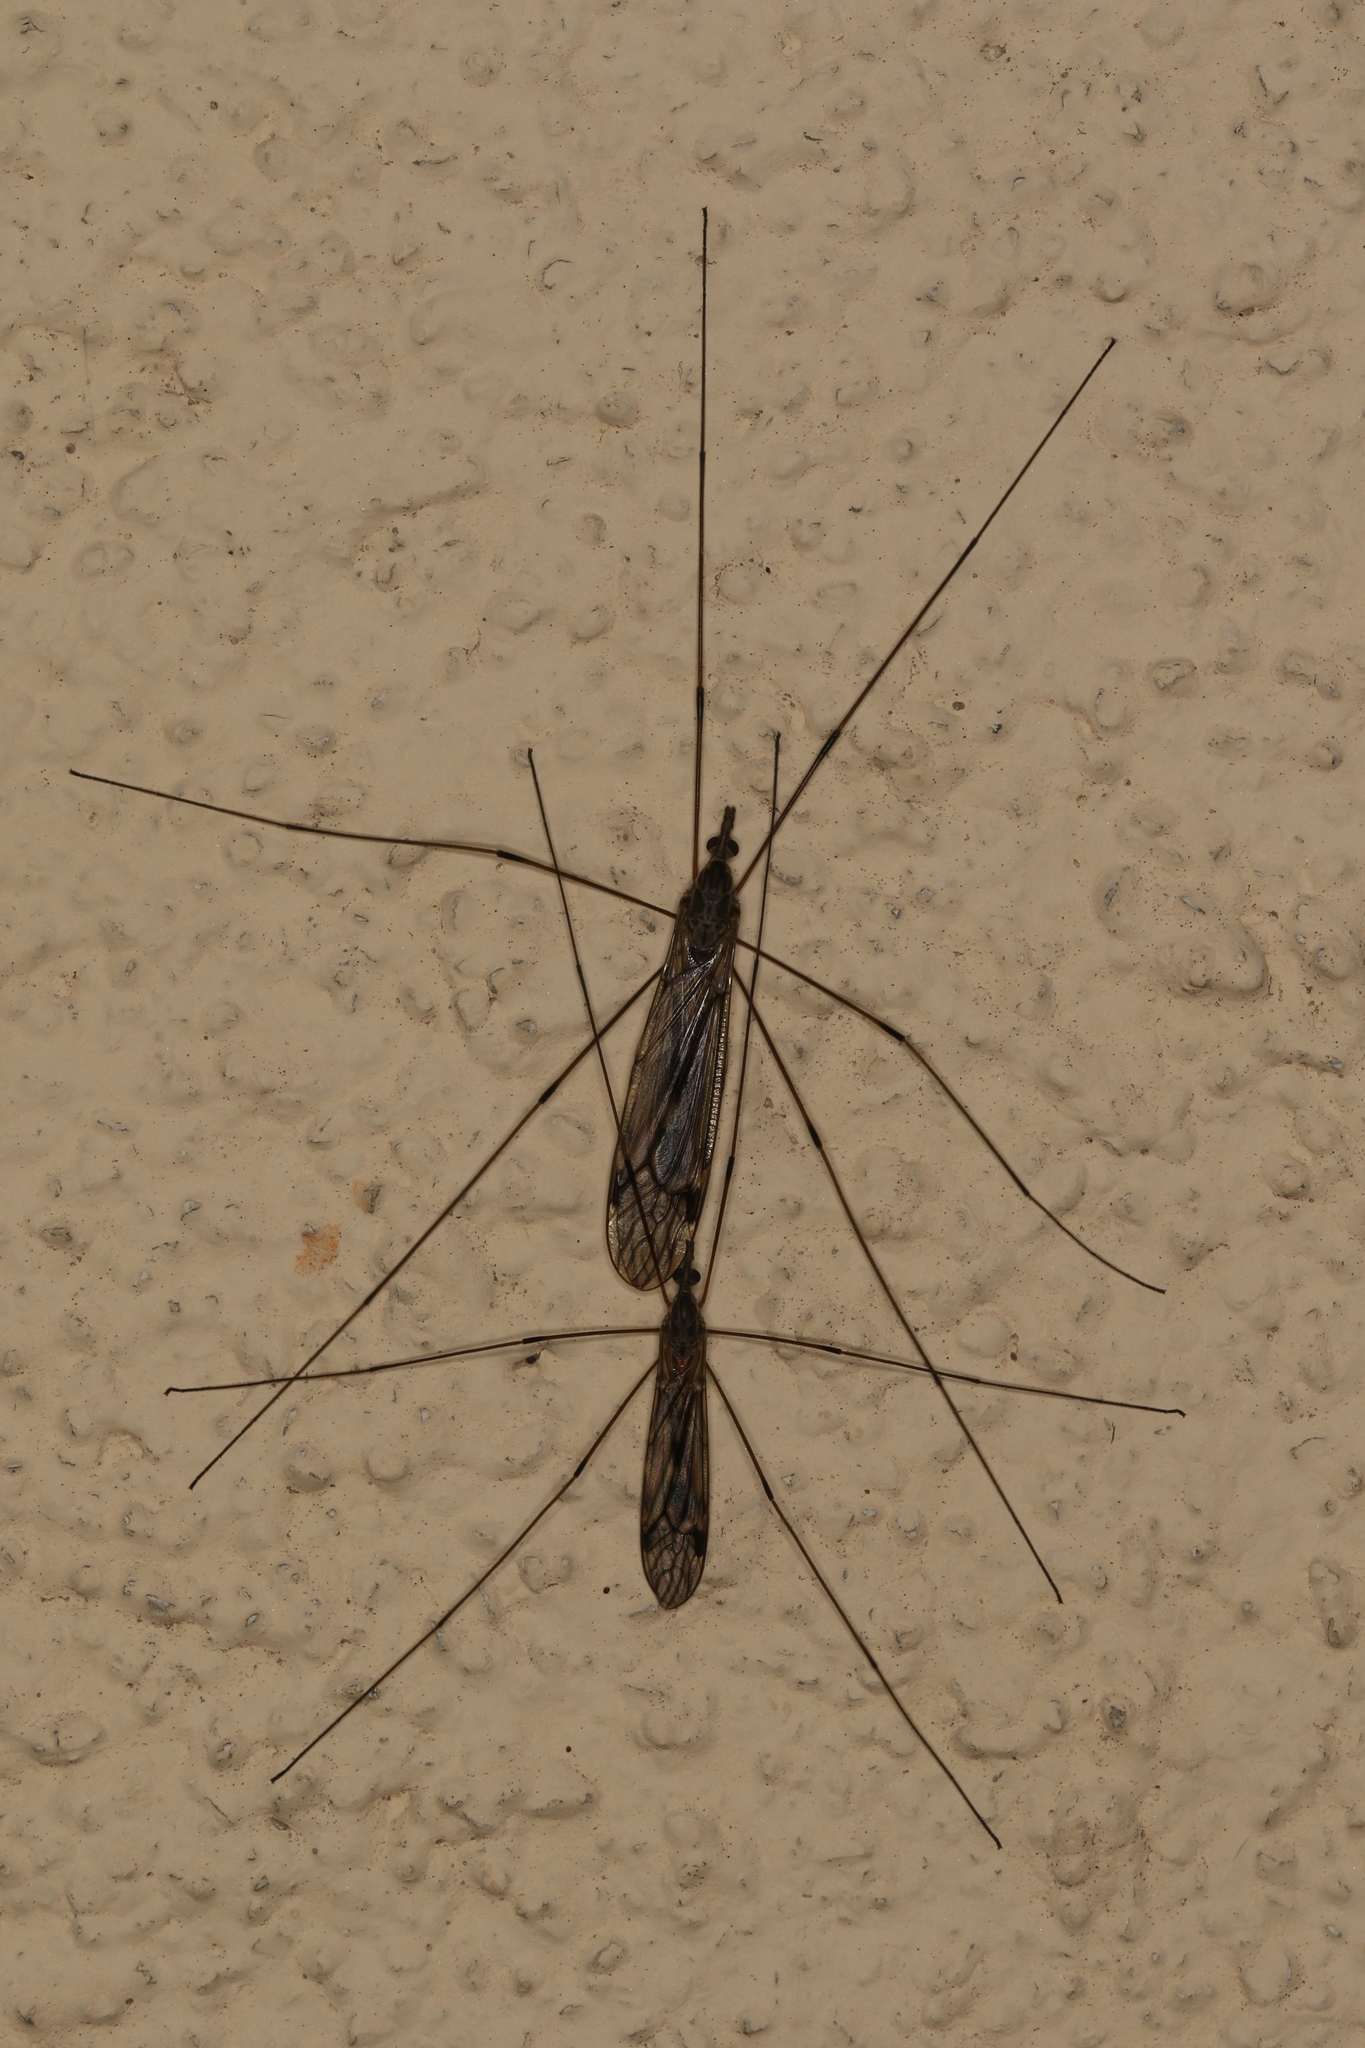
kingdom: Animalia
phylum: Arthropoda
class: Insecta
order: Diptera
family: Tipulidae
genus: Tipula
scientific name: Tipula rufina
